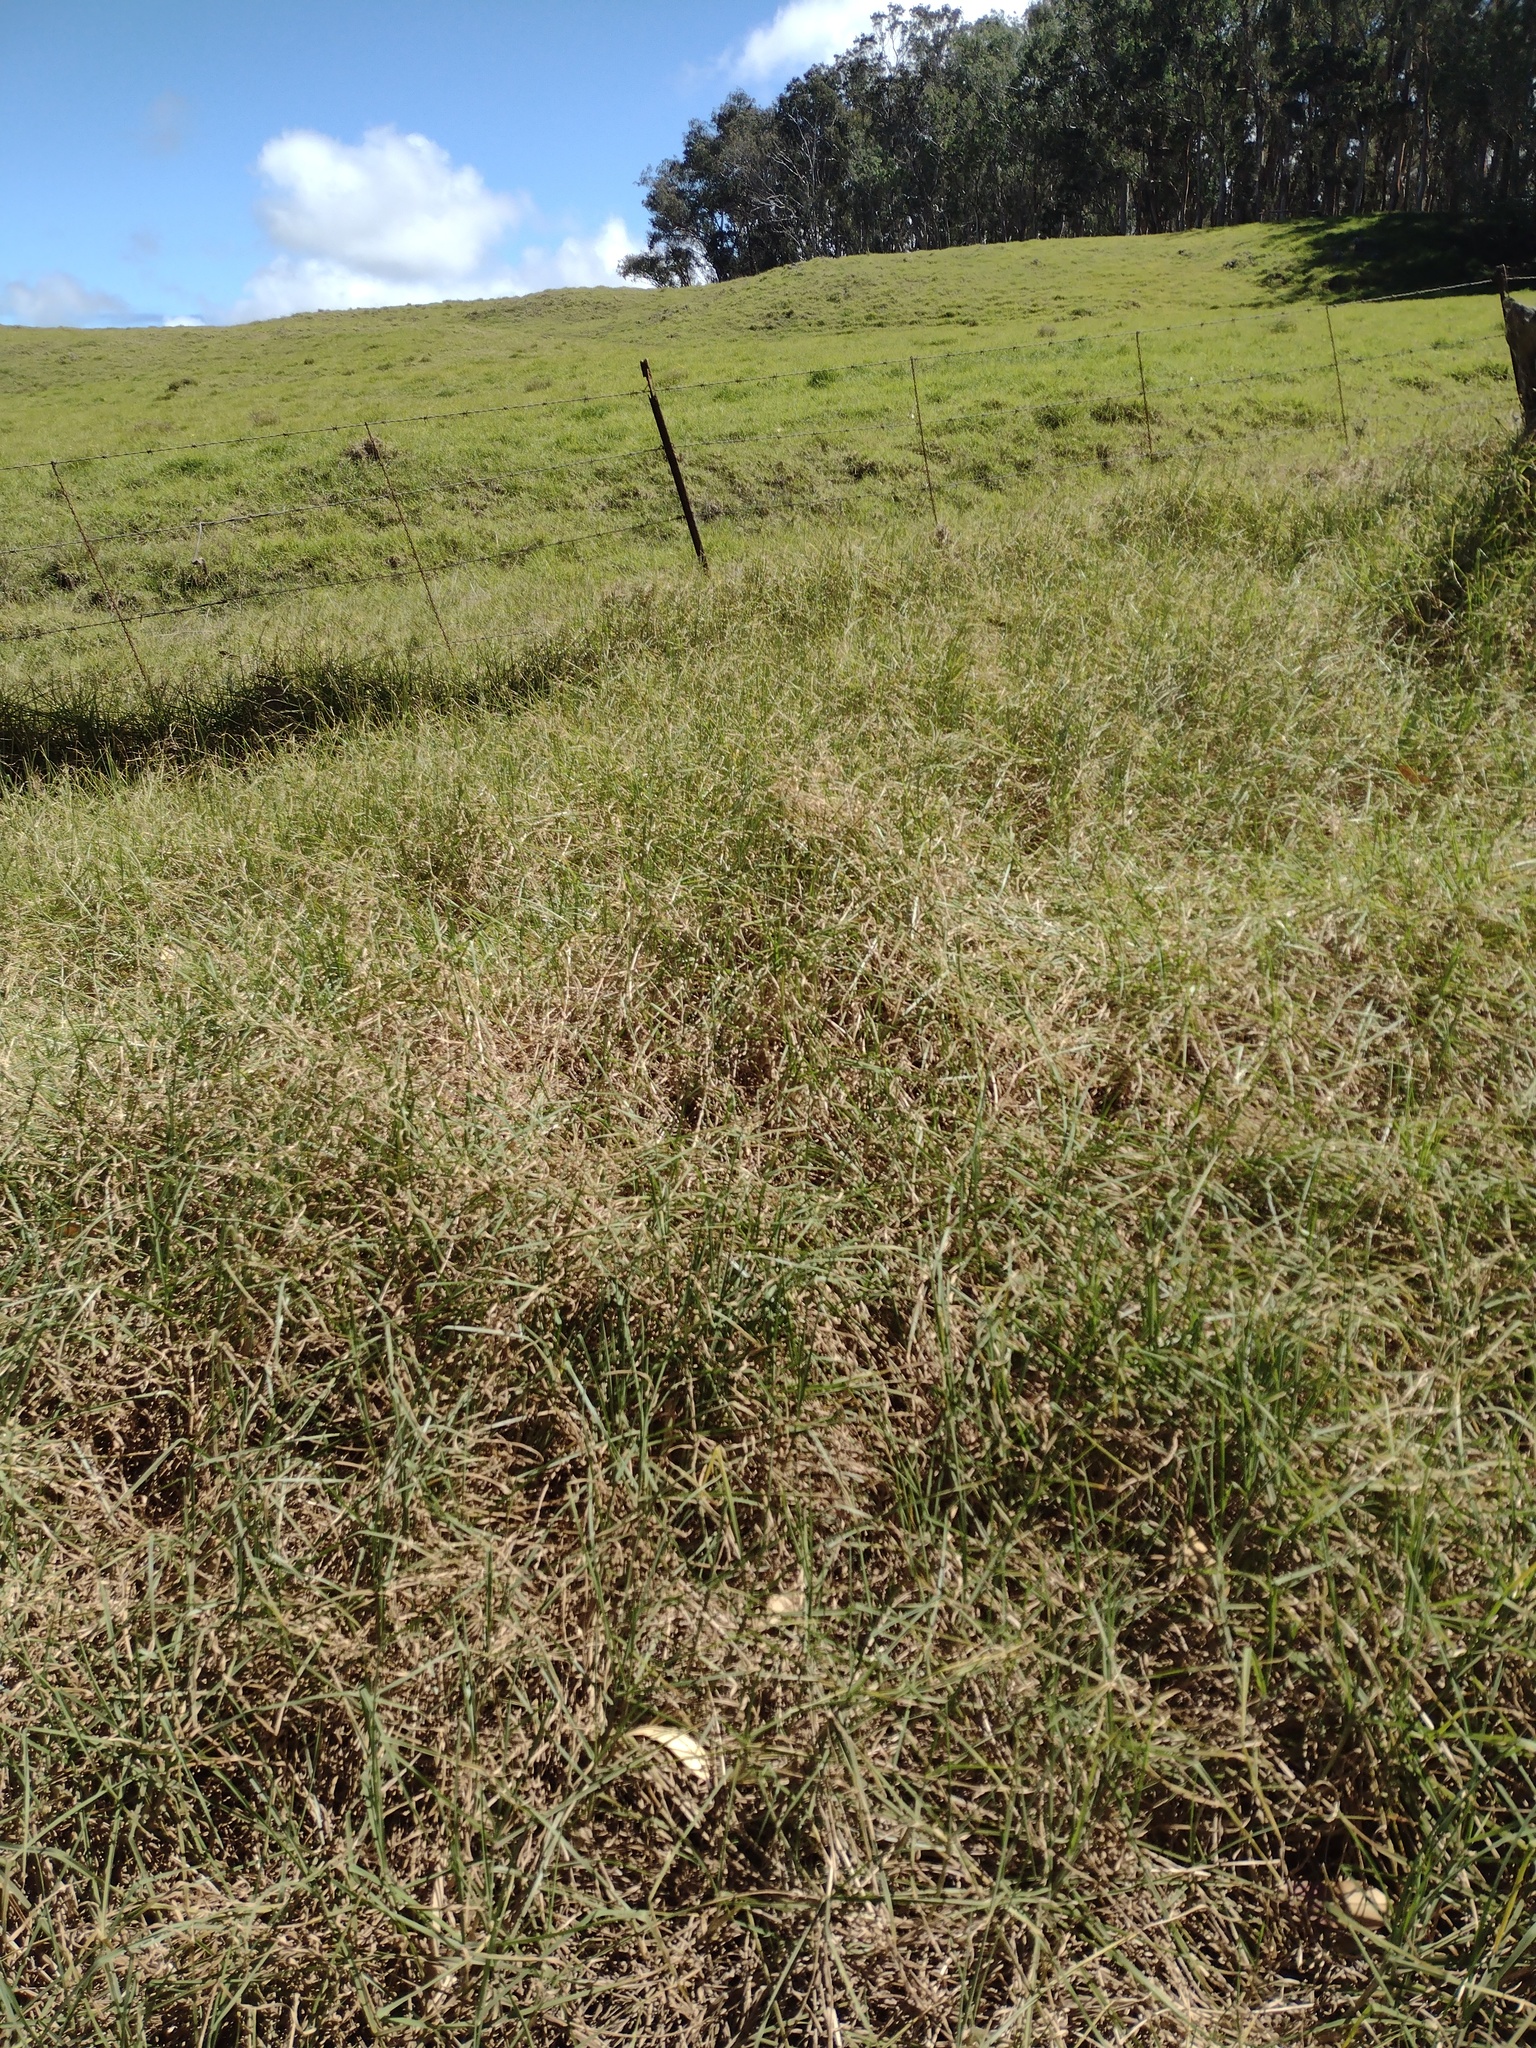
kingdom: Plantae
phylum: Tracheophyta
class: Liliopsida
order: Poales
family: Poaceae
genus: Cenchrus
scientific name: Cenchrus clandestinus
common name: Kikuyugrass
